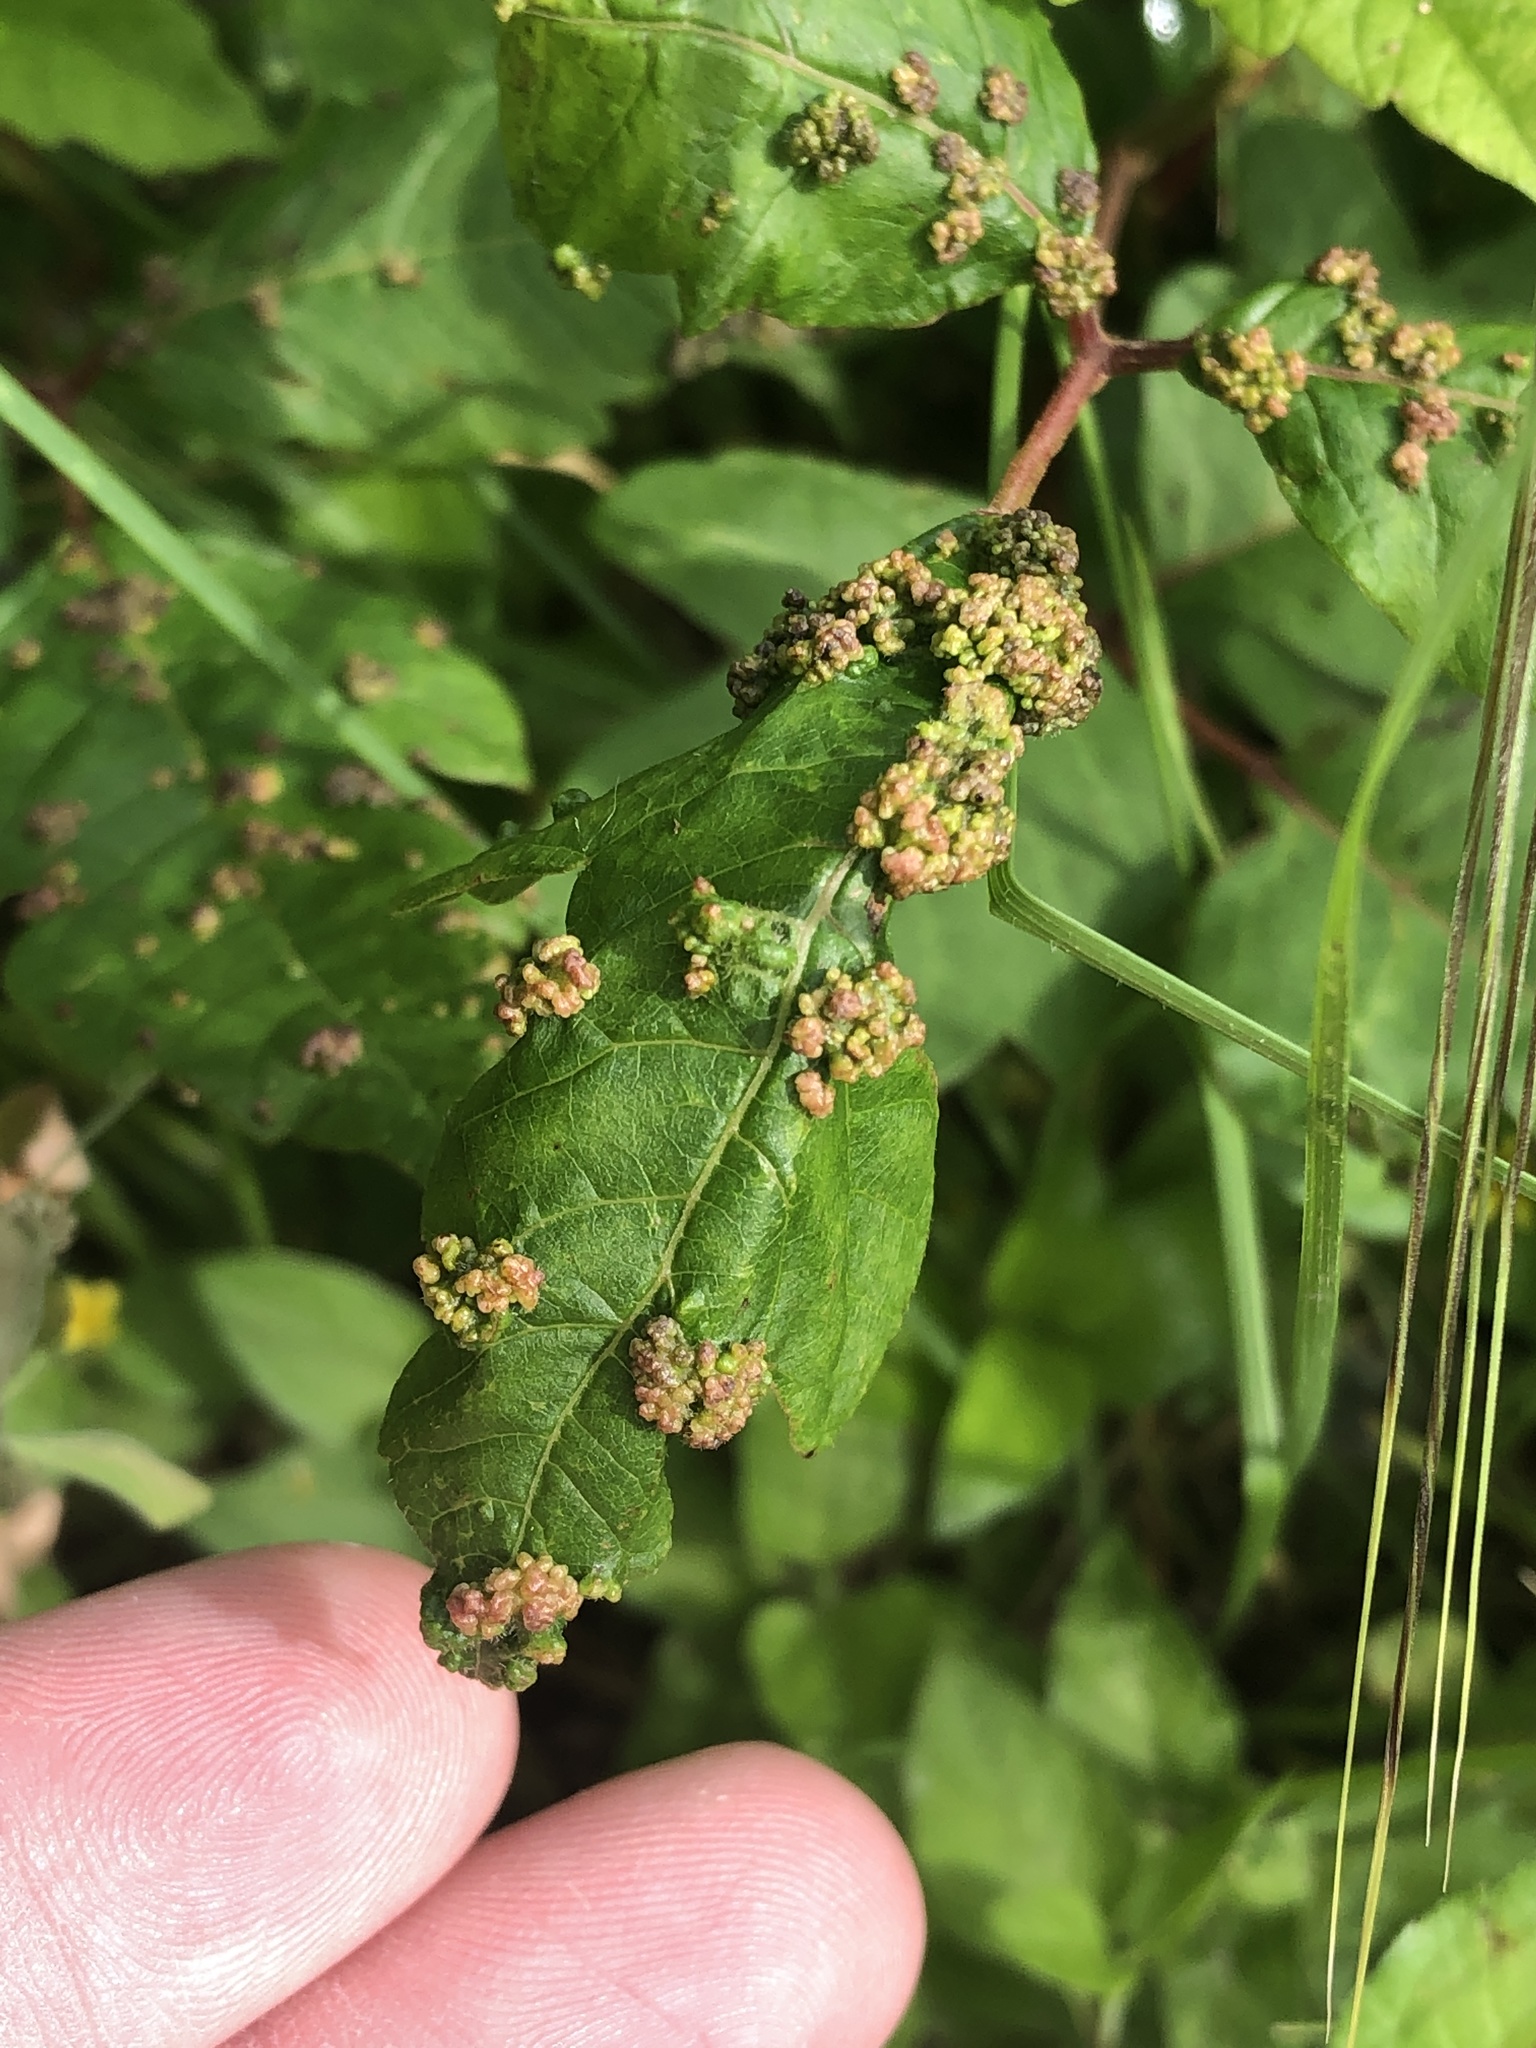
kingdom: Animalia
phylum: Arthropoda
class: Arachnida
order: Trombidiformes
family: Eriophyidae
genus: Aculops
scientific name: Aculops
